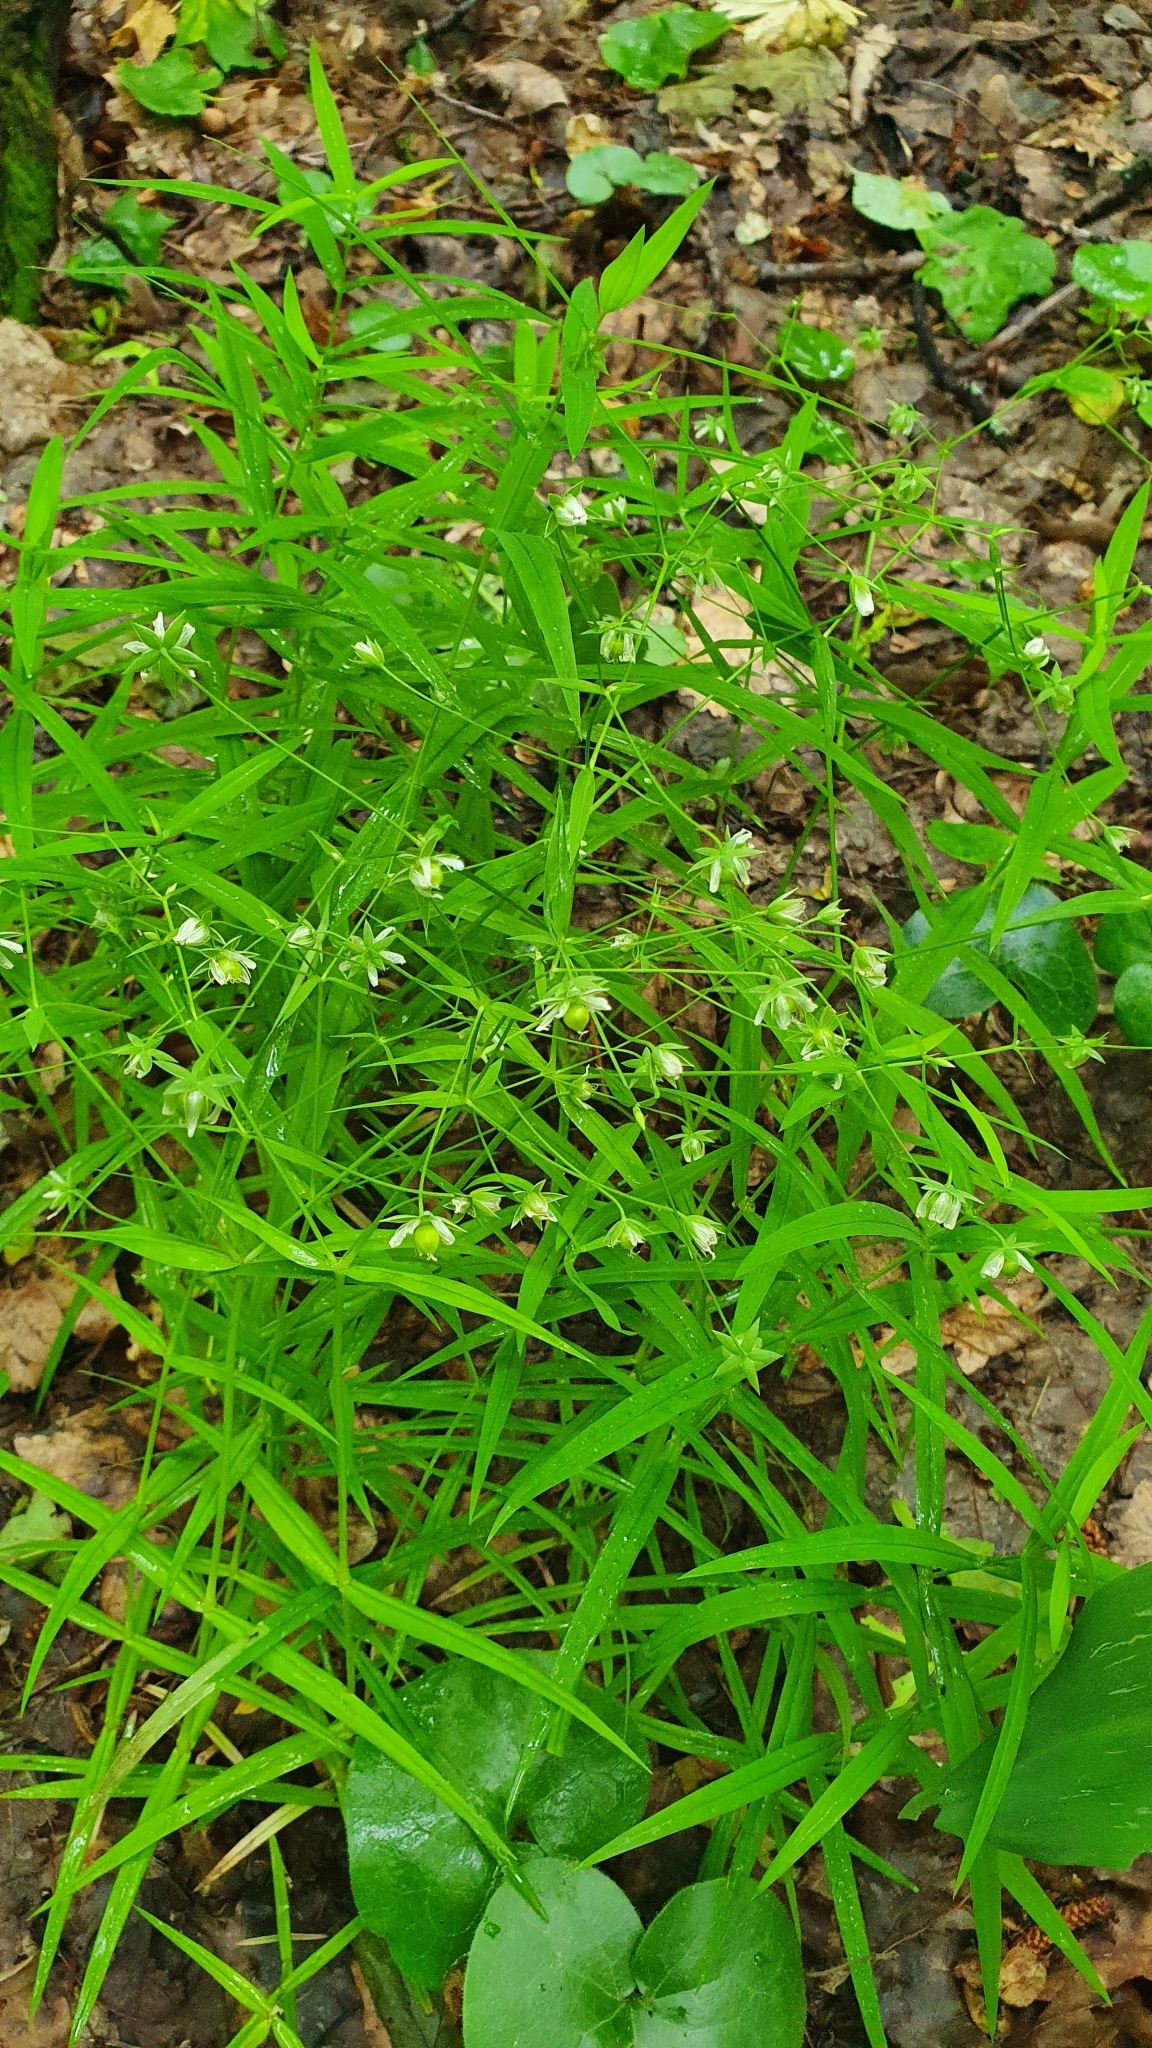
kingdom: Plantae
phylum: Tracheophyta
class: Magnoliopsida
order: Caryophyllales
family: Caryophyllaceae
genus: Rabelera
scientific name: Rabelera holostea
